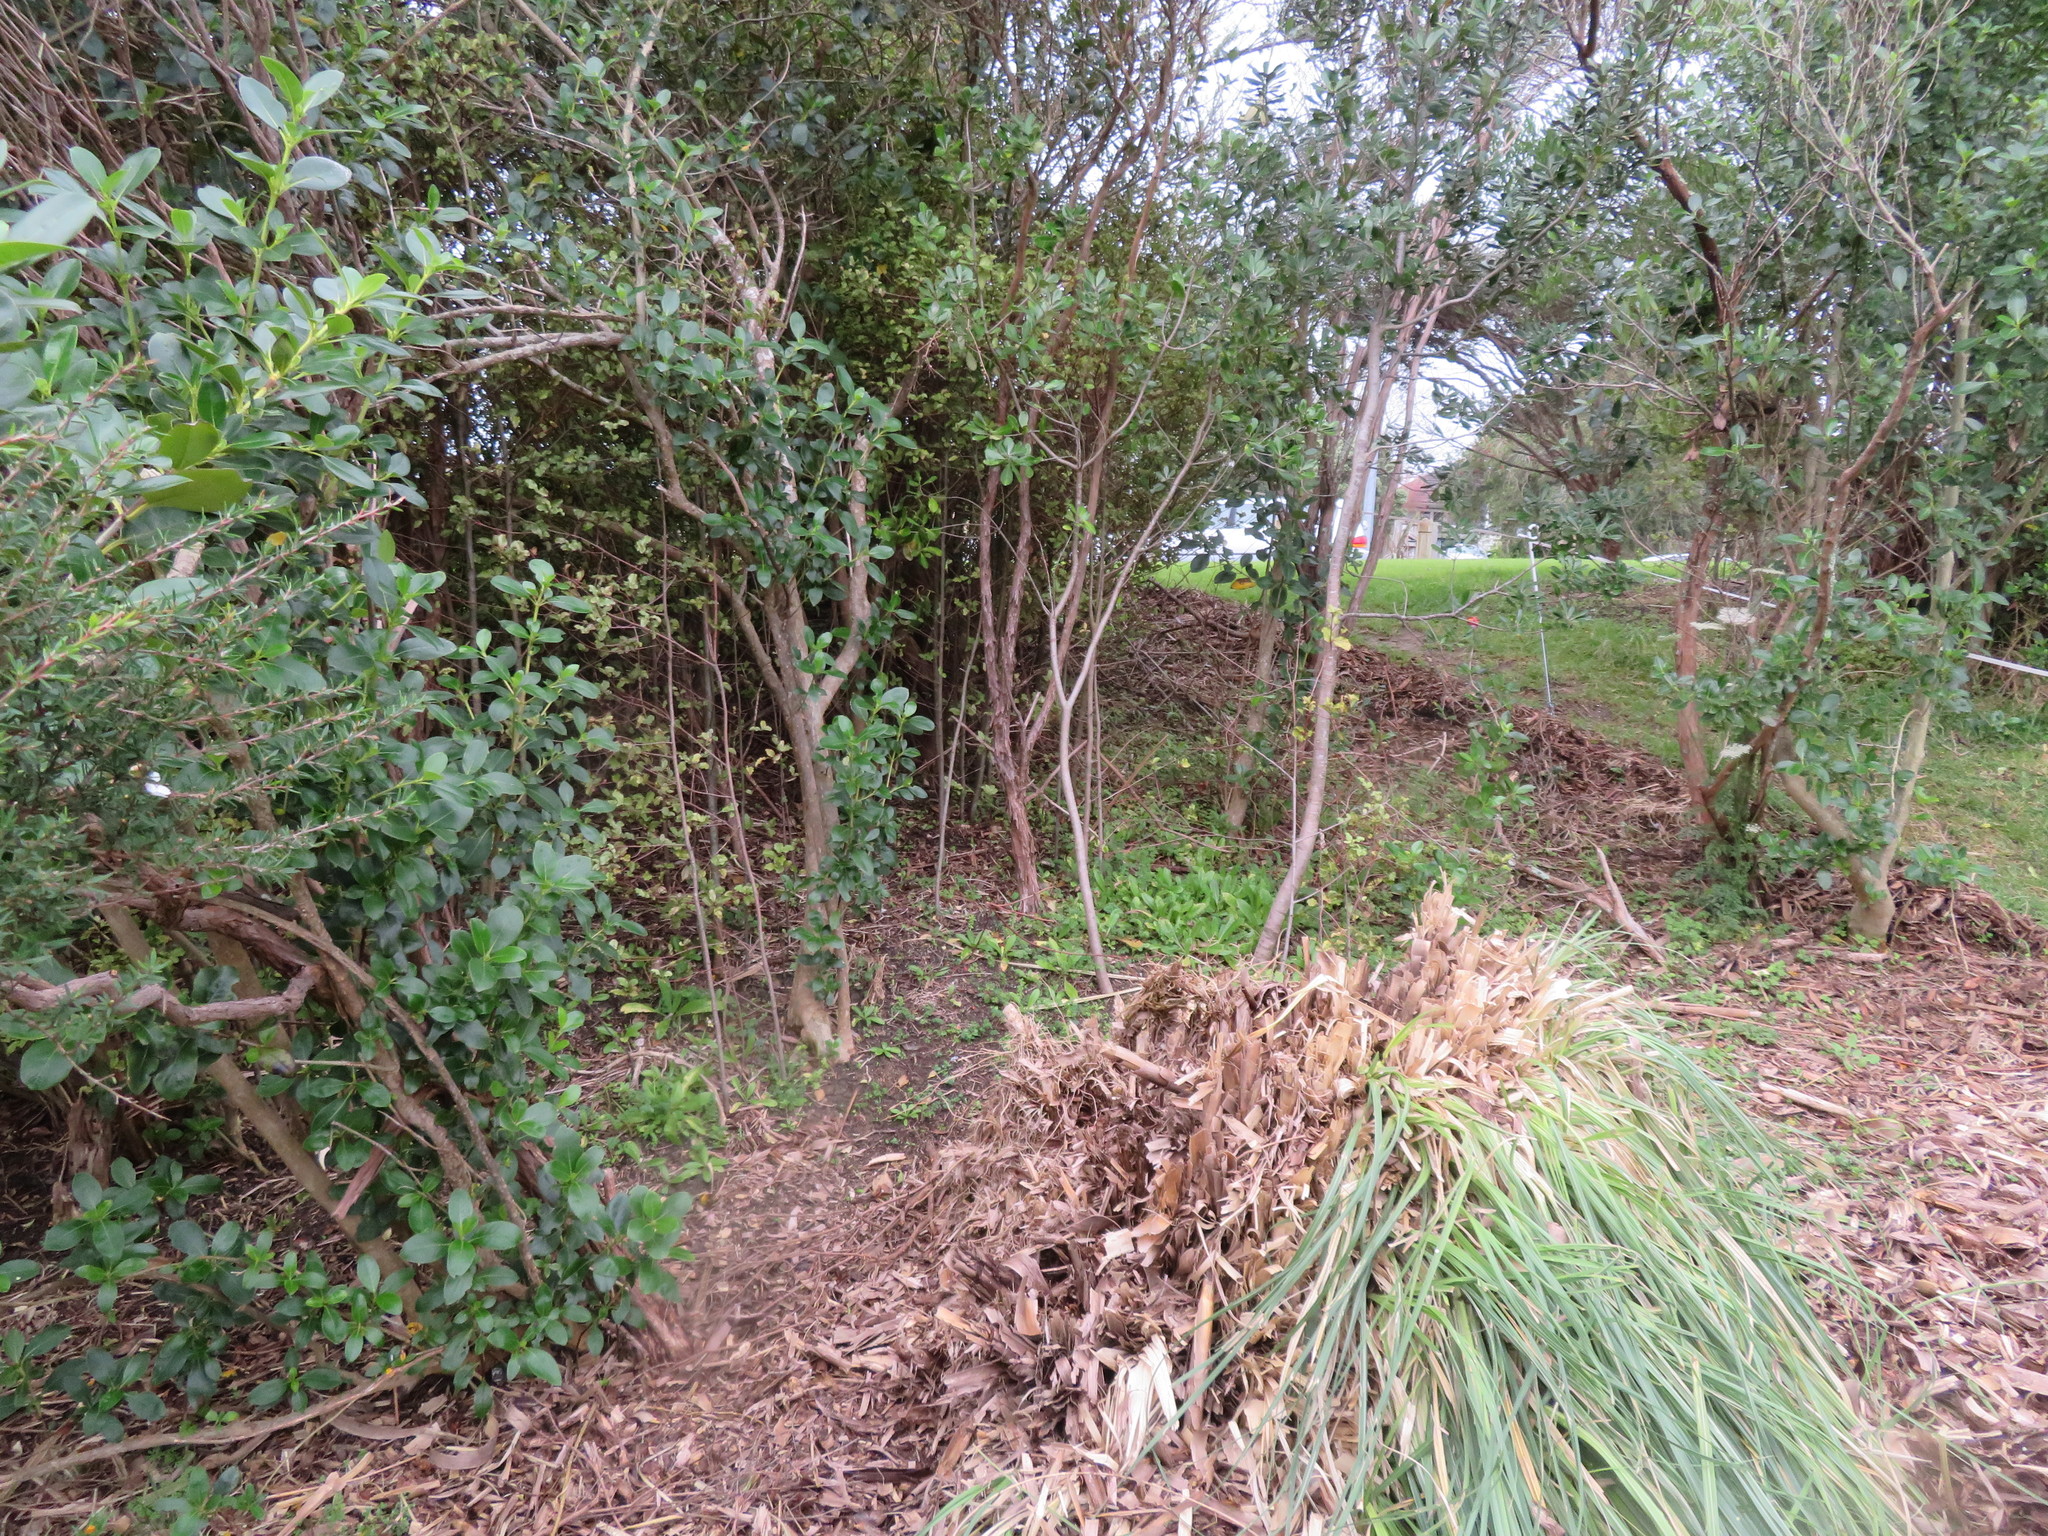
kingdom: Plantae
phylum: Tracheophyta
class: Liliopsida
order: Poales
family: Poaceae
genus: Cortaderia
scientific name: Cortaderia selloana
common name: Uruguayan pampas grass
